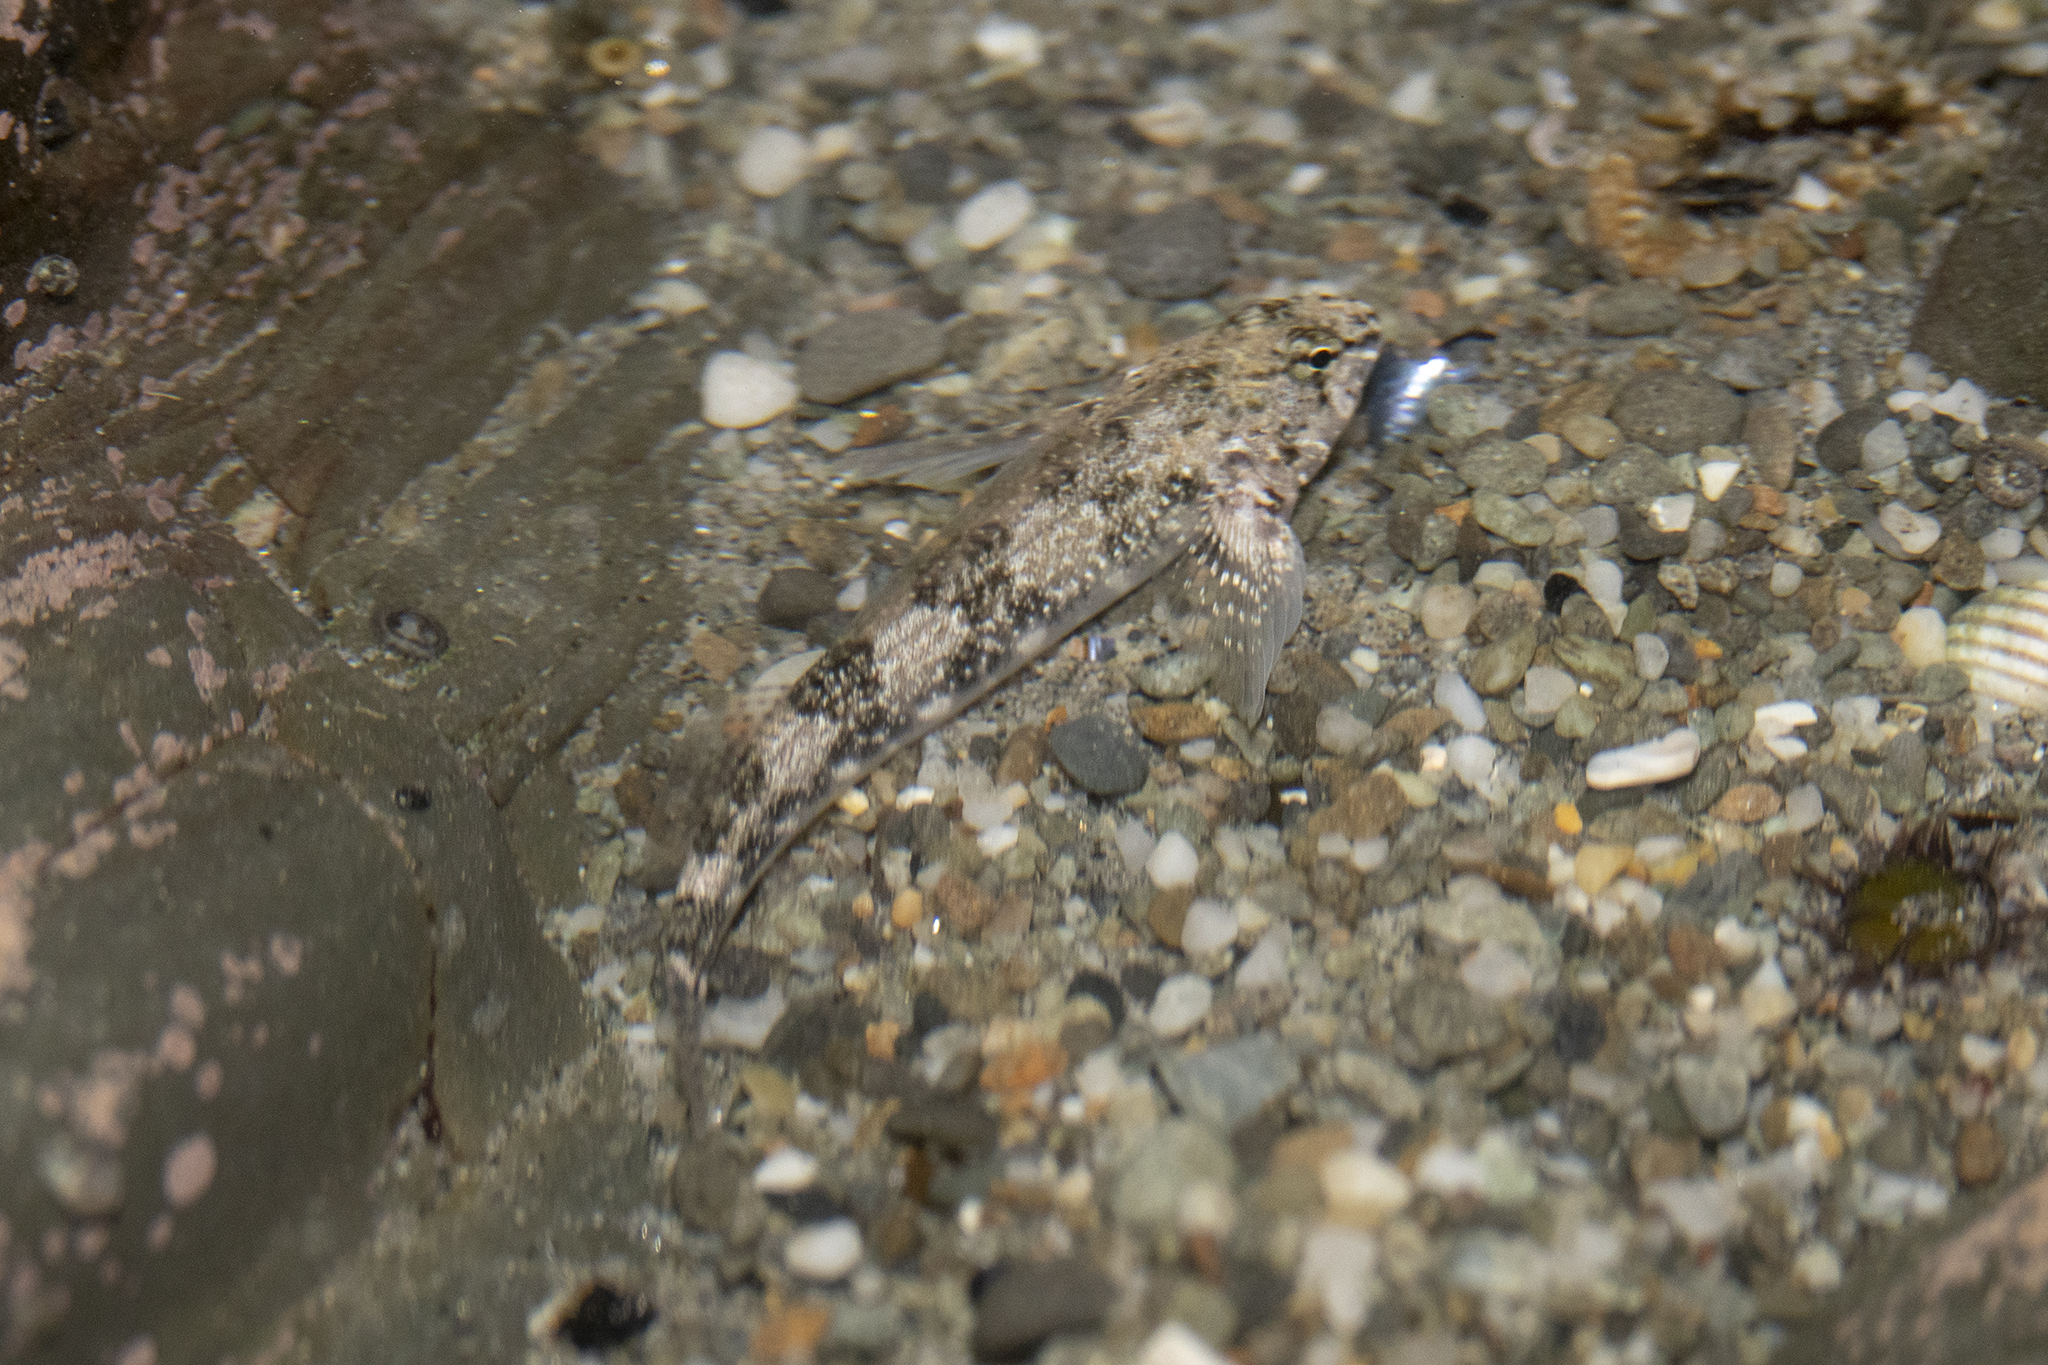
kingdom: Animalia
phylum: Chordata
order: Perciformes
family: Tripterygiidae
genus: Bellapiscis
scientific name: Bellapiscis medius
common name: Twister
